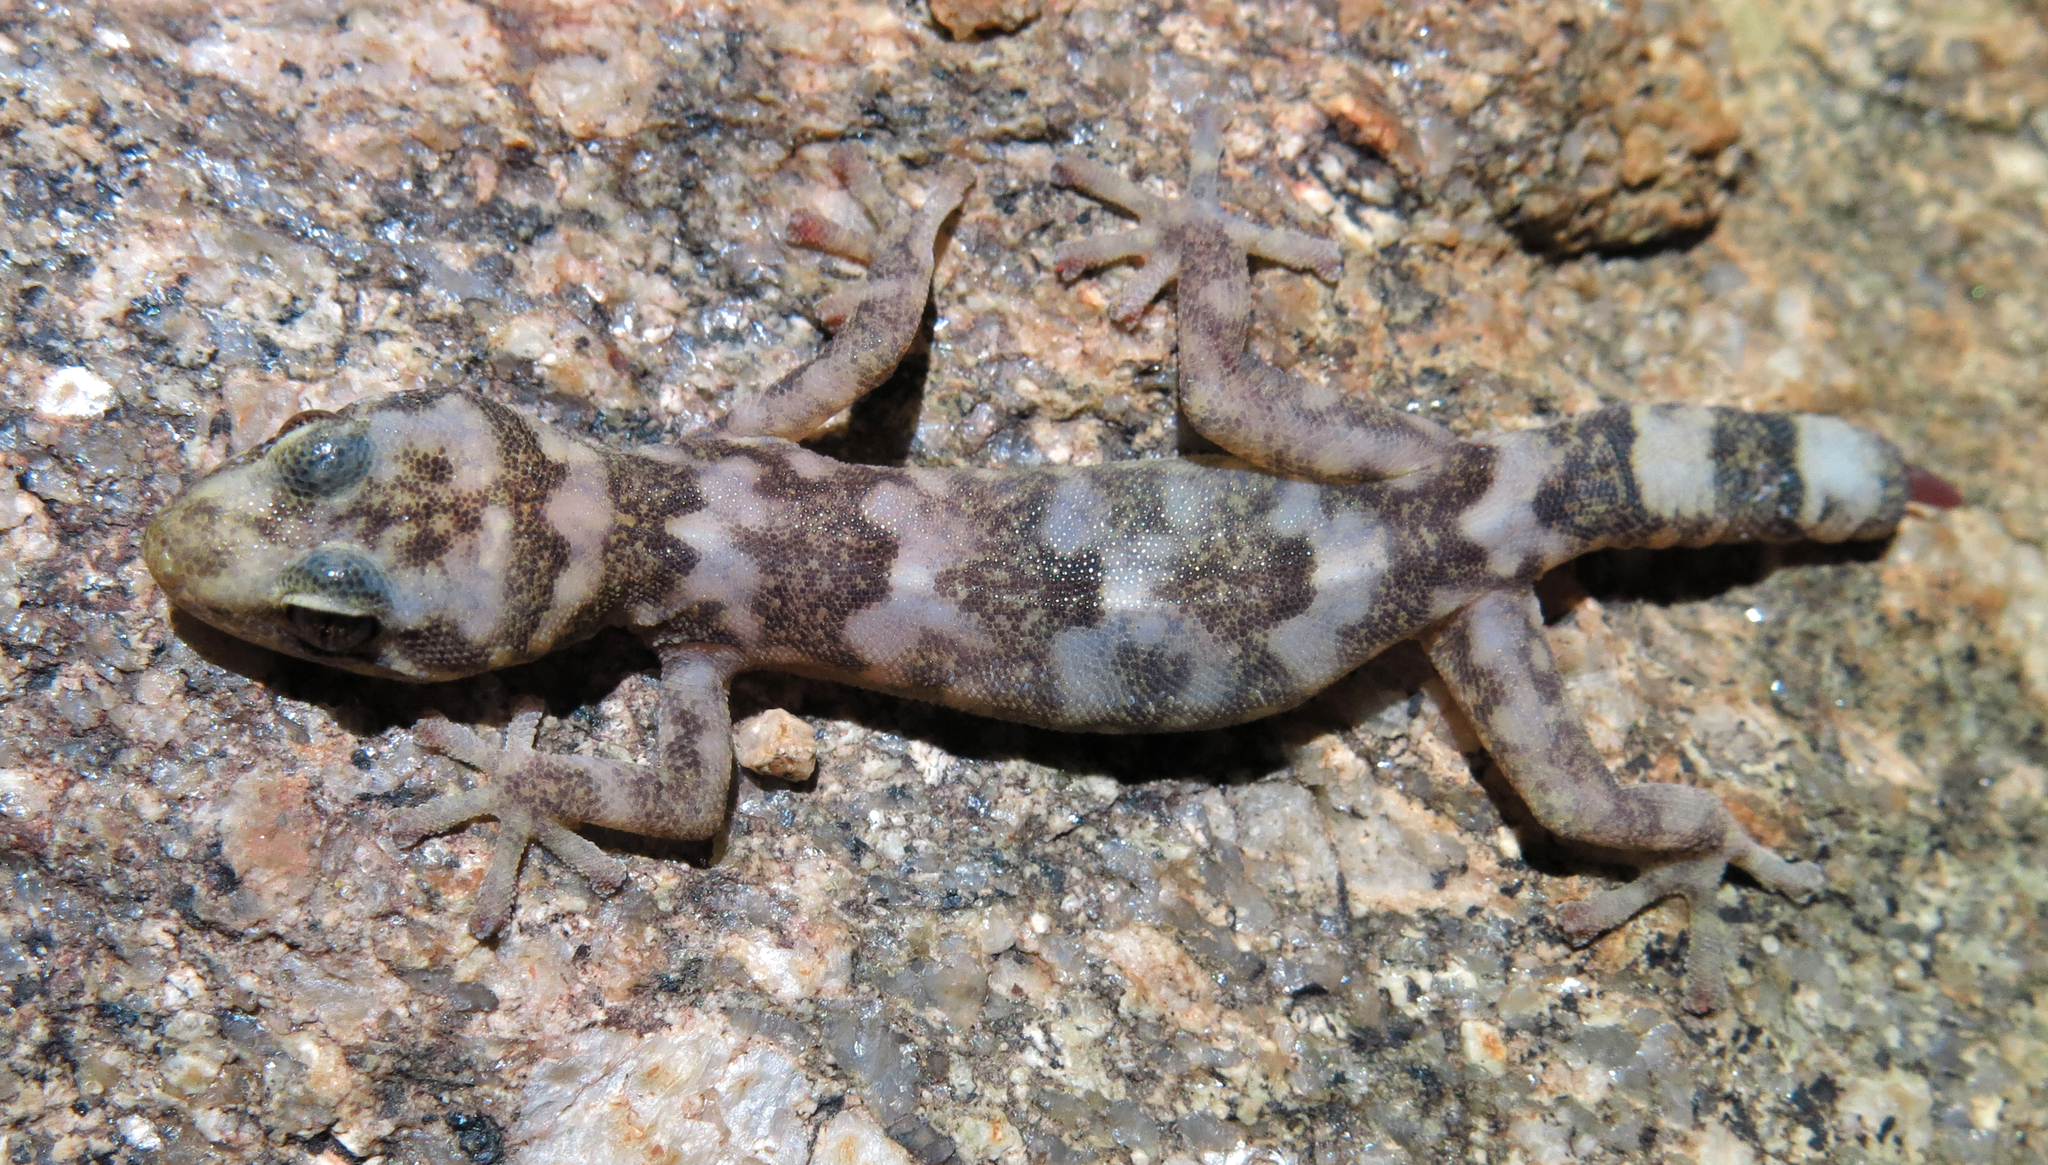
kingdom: Animalia
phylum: Chordata
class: Squamata
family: Gekkonidae
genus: Afroedura
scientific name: Afroedura namaquensis
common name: Namaqua flat gecko
